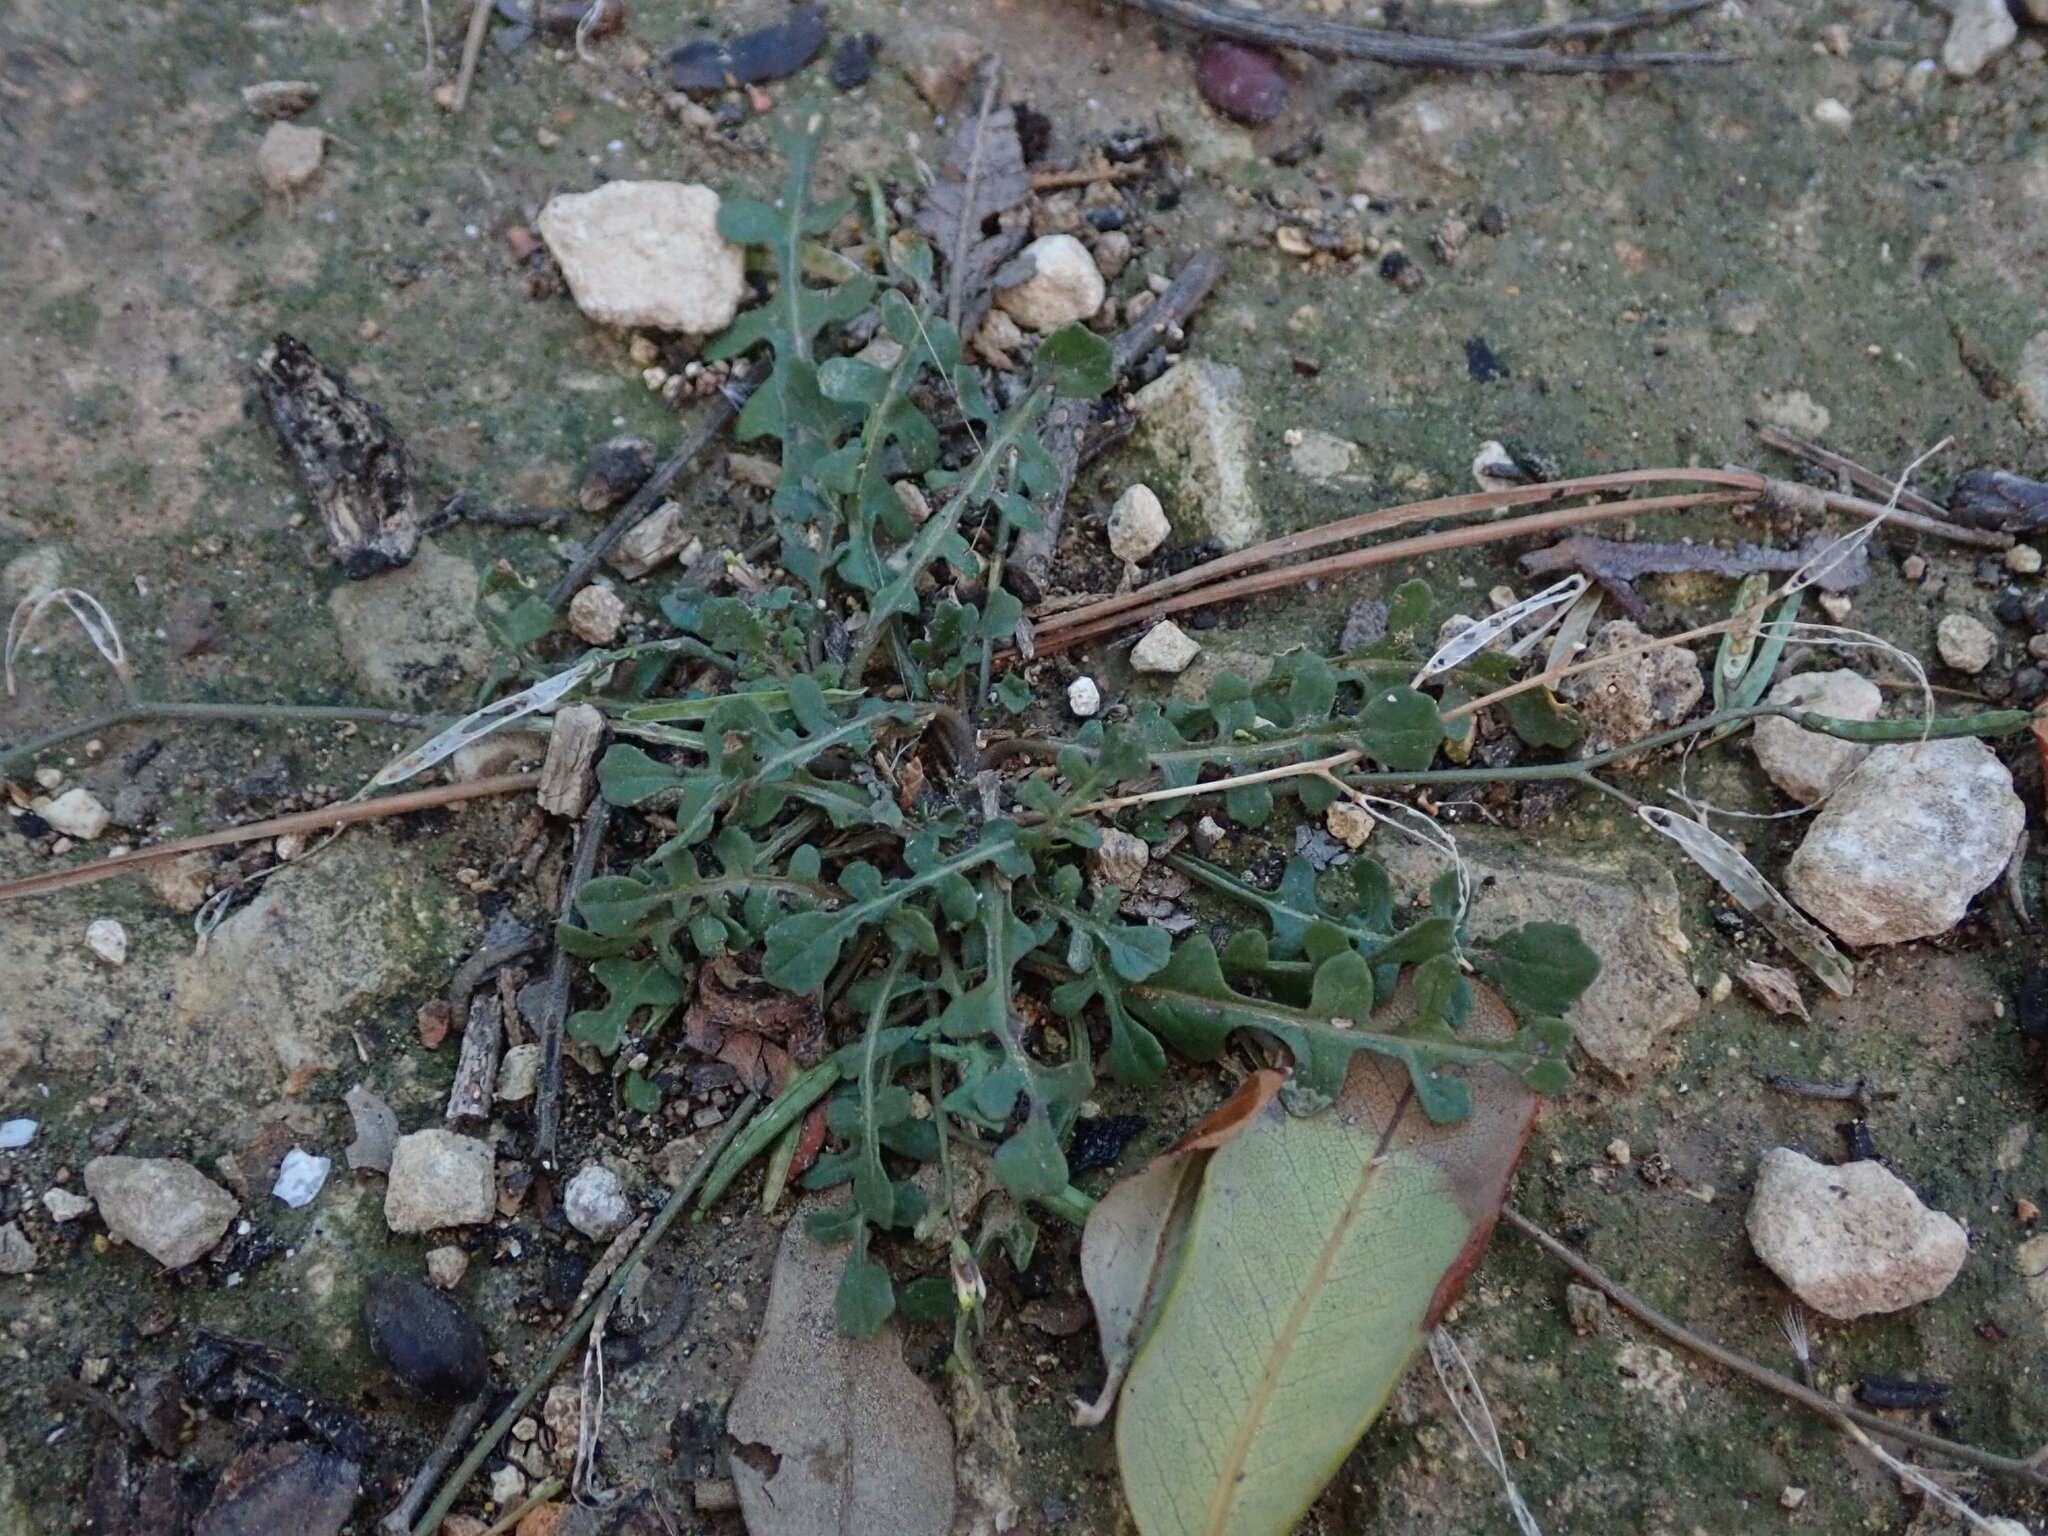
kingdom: Plantae
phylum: Tracheophyta
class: Magnoliopsida
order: Brassicales
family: Brassicaceae
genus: Diplotaxis
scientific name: Diplotaxis viminea
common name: Vineyard wall rocket
